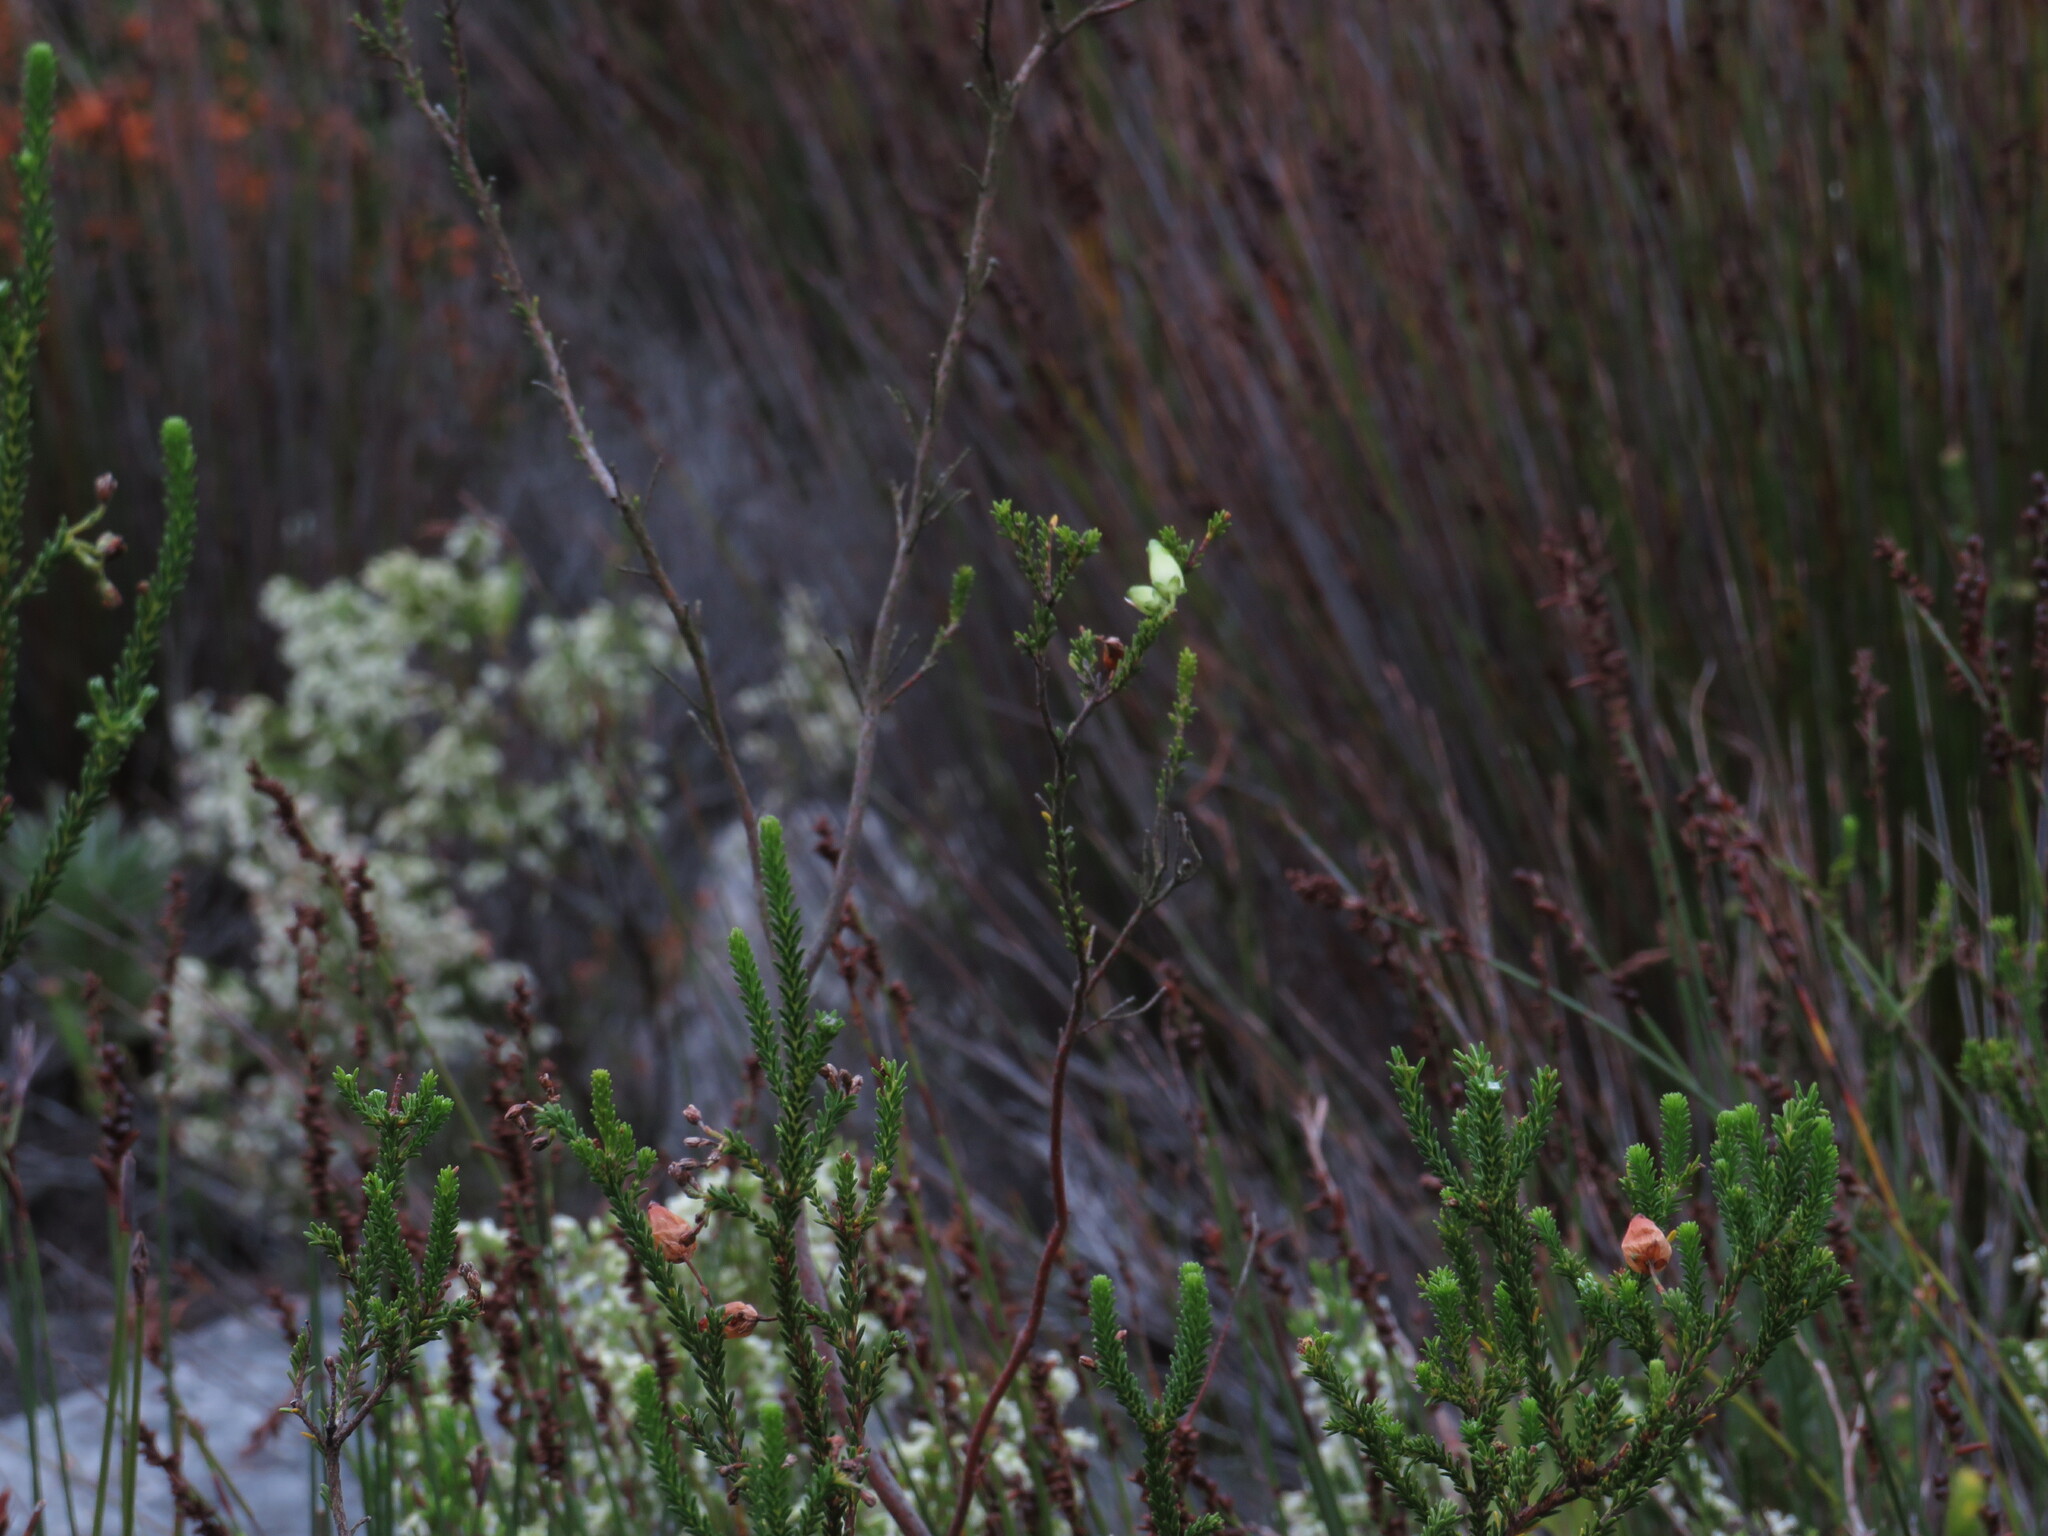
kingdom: Plantae
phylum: Tracheophyta
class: Magnoliopsida
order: Ericales
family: Ericaceae
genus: Erica
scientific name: Erica urna-viridis
